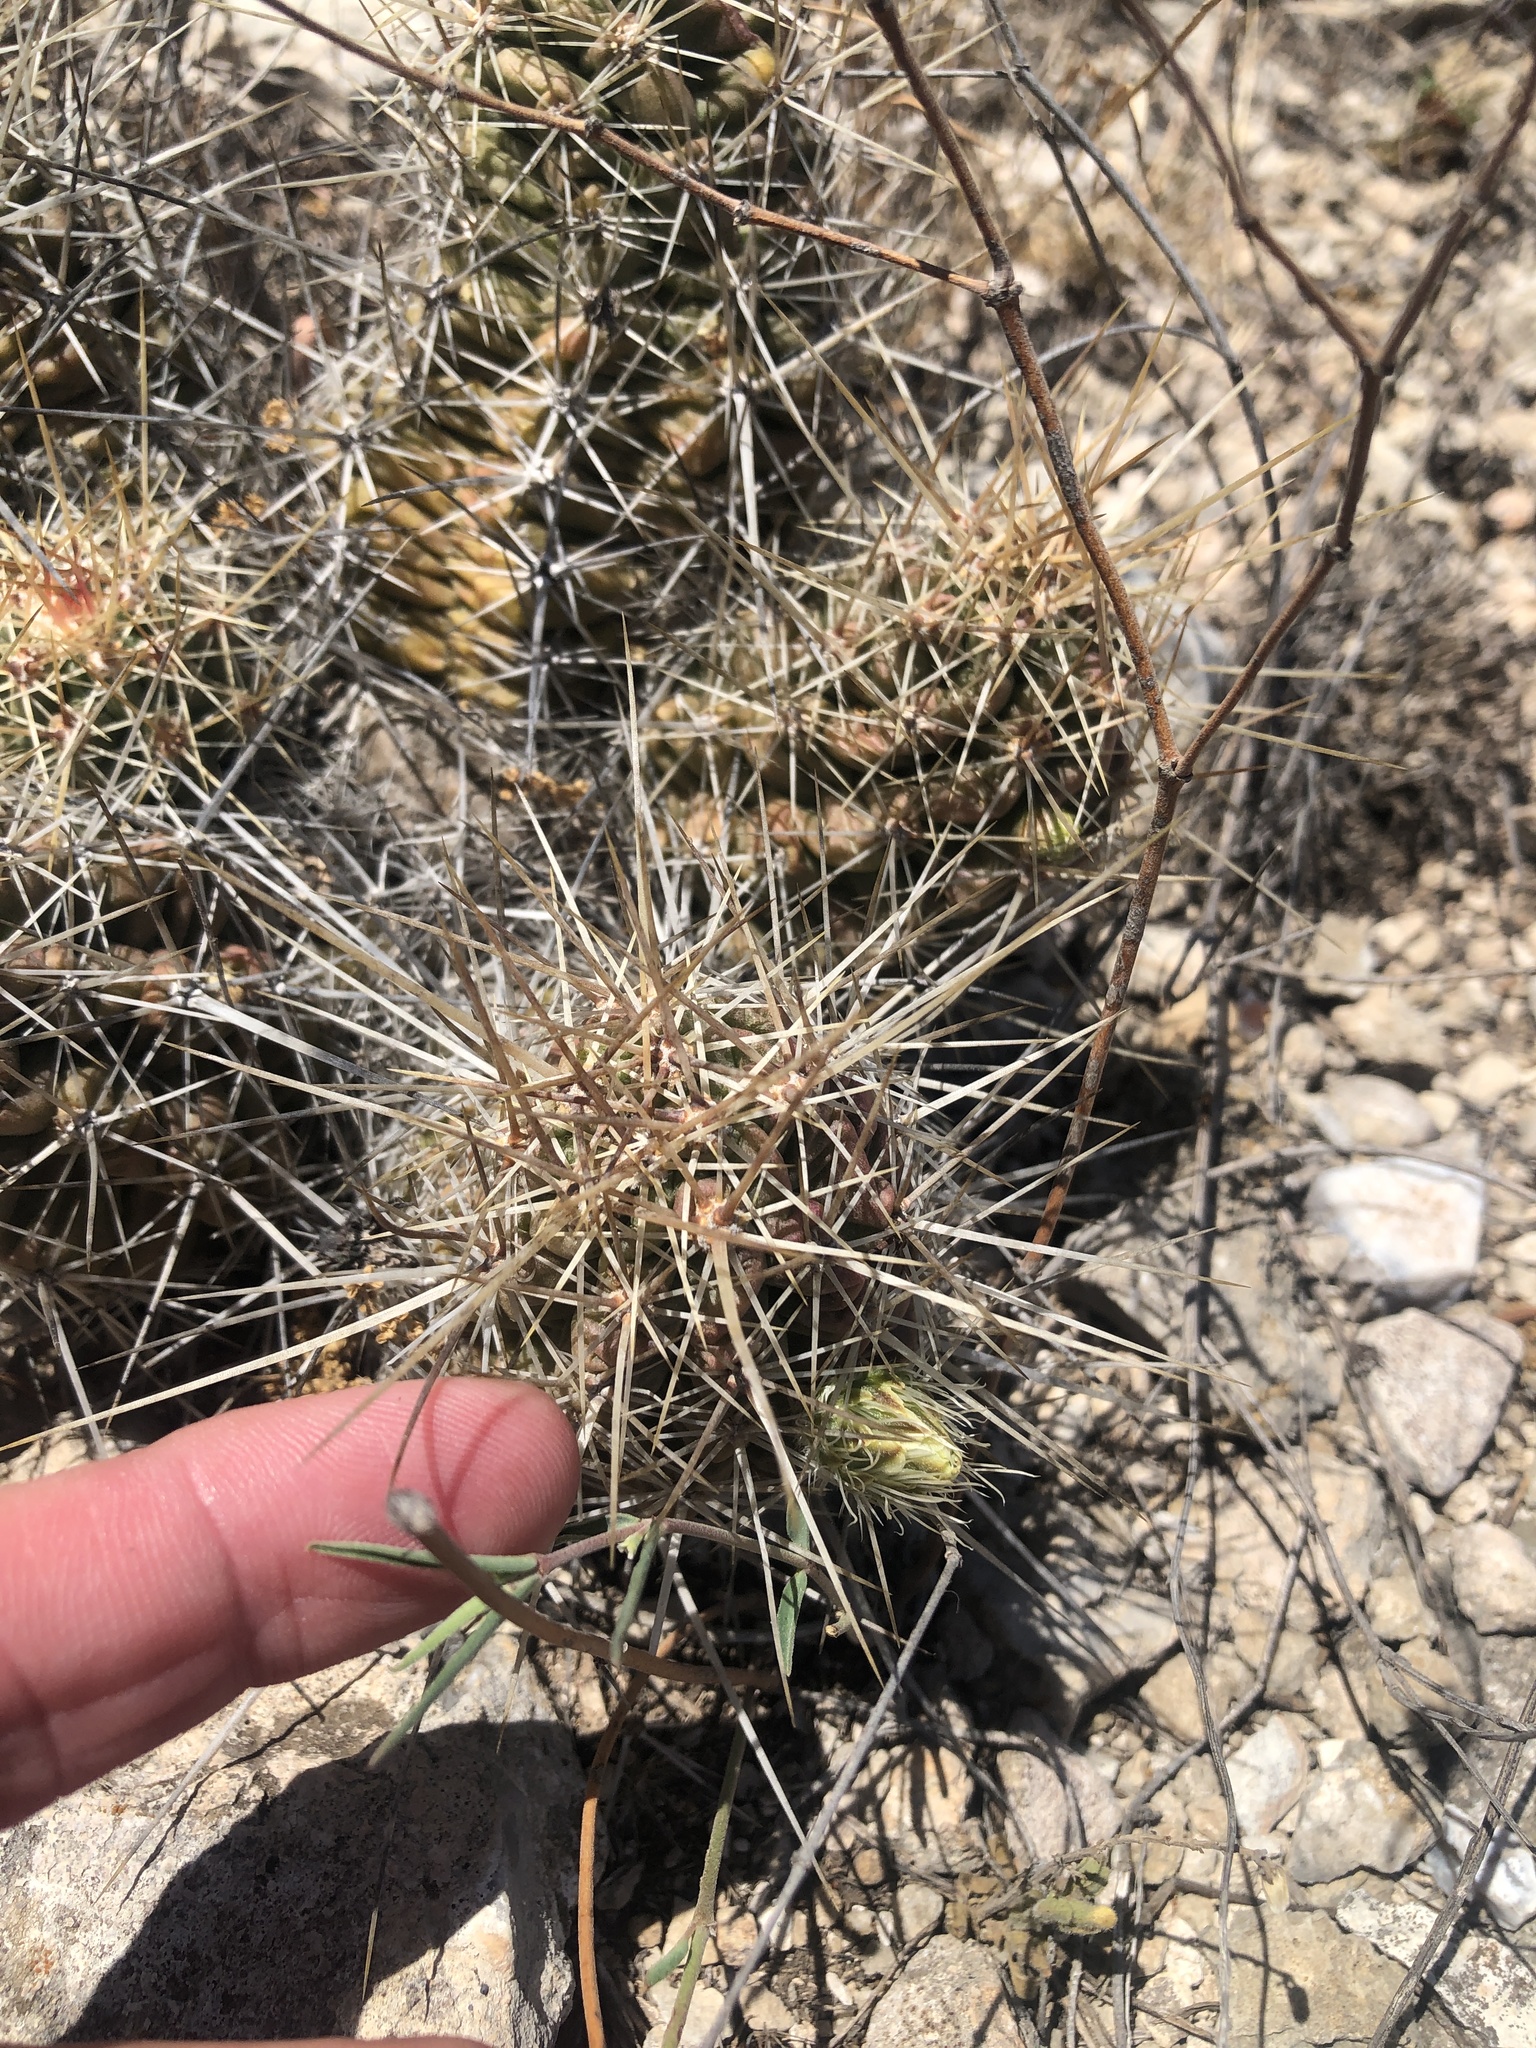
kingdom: Plantae
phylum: Tracheophyta
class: Magnoliopsida
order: Caryophyllales
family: Cactaceae
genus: Echinocereus
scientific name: Echinocereus enneacanthus
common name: Pitaya
